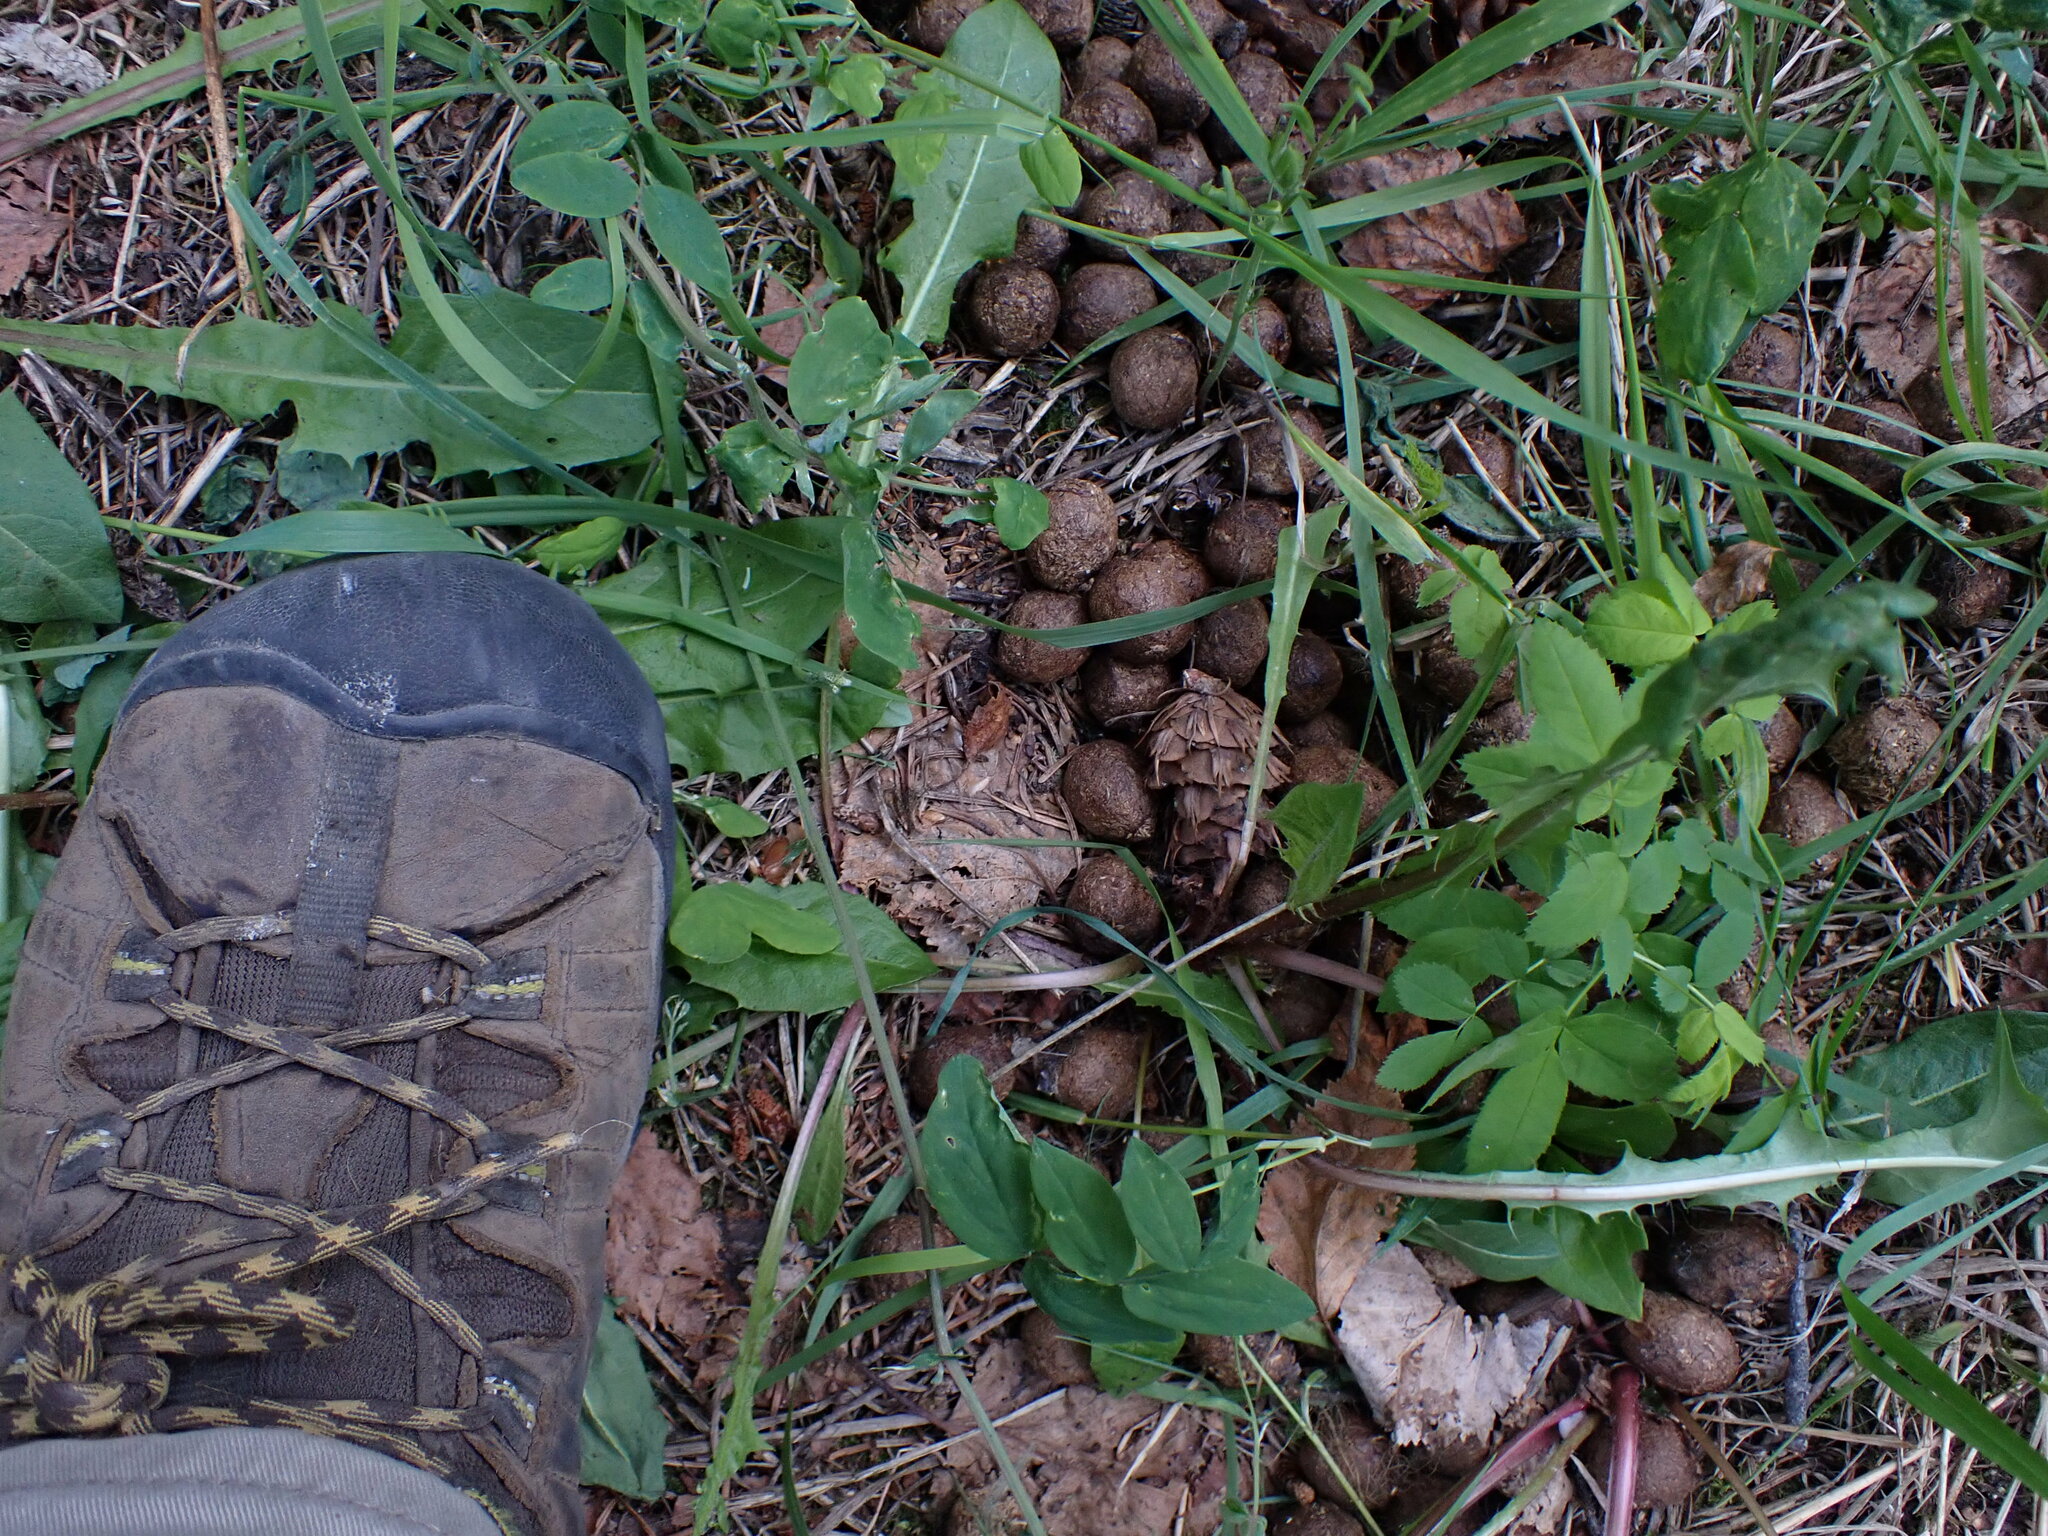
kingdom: Animalia
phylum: Chordata
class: Mammalia
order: Artiodactyla
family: Cervidae
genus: Alces
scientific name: Alces alces
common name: Moose
